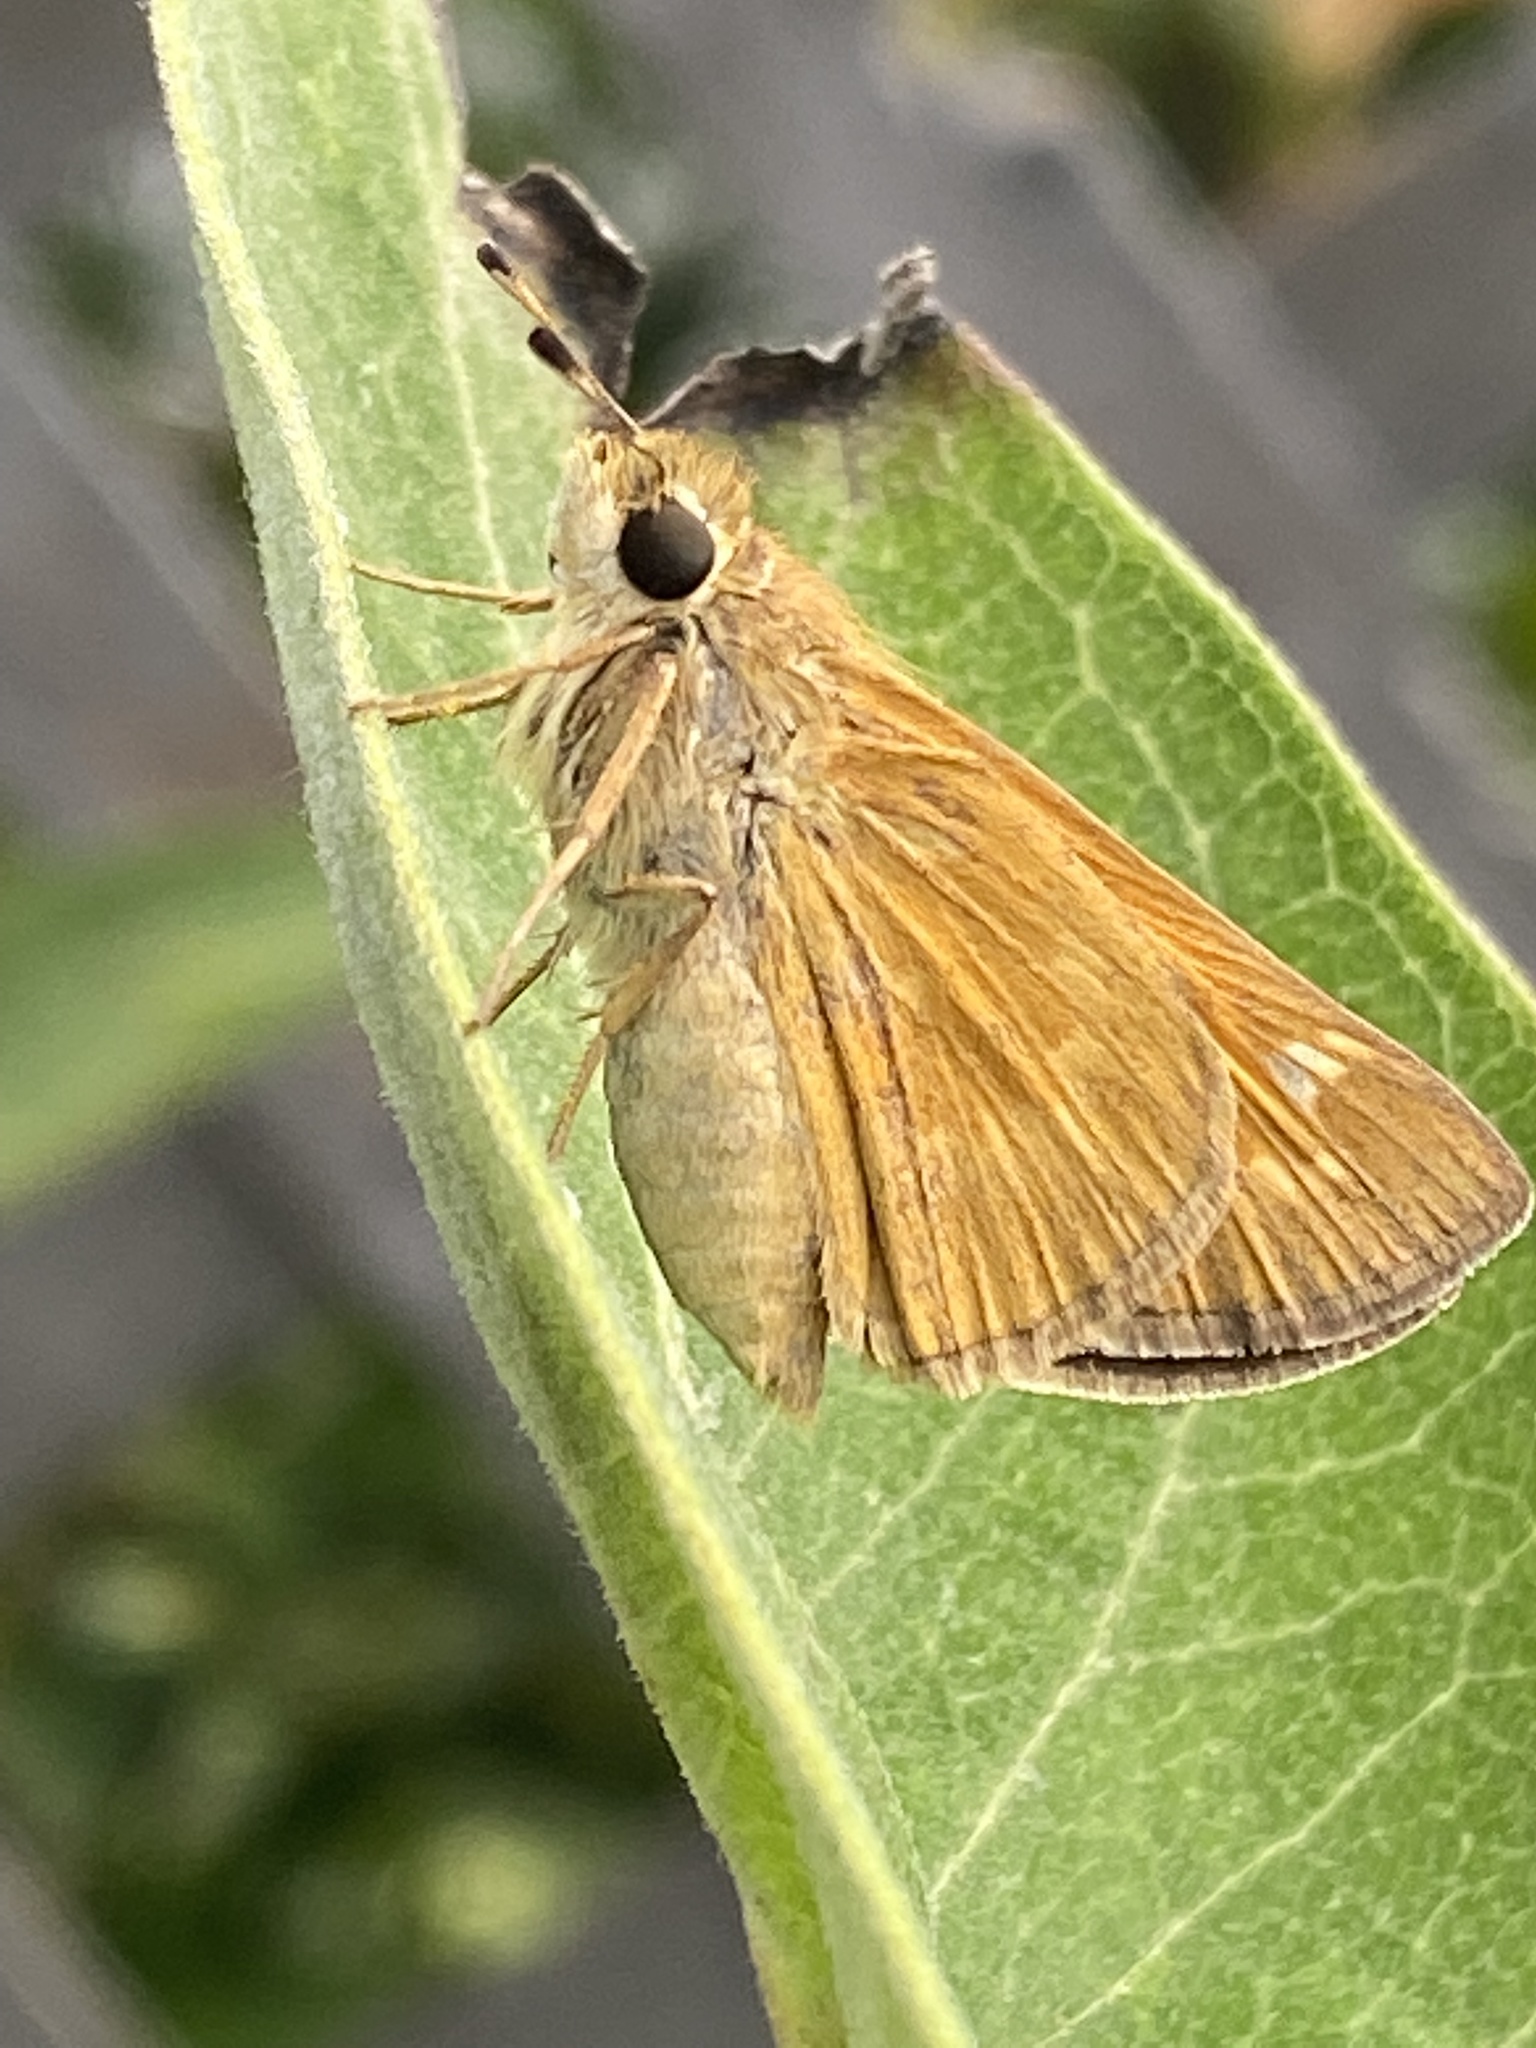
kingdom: Animalia
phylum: Arthropoda
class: Insecta
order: Lepidoptera
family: Hesperiidae
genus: Atalopedes
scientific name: Atalopedes
